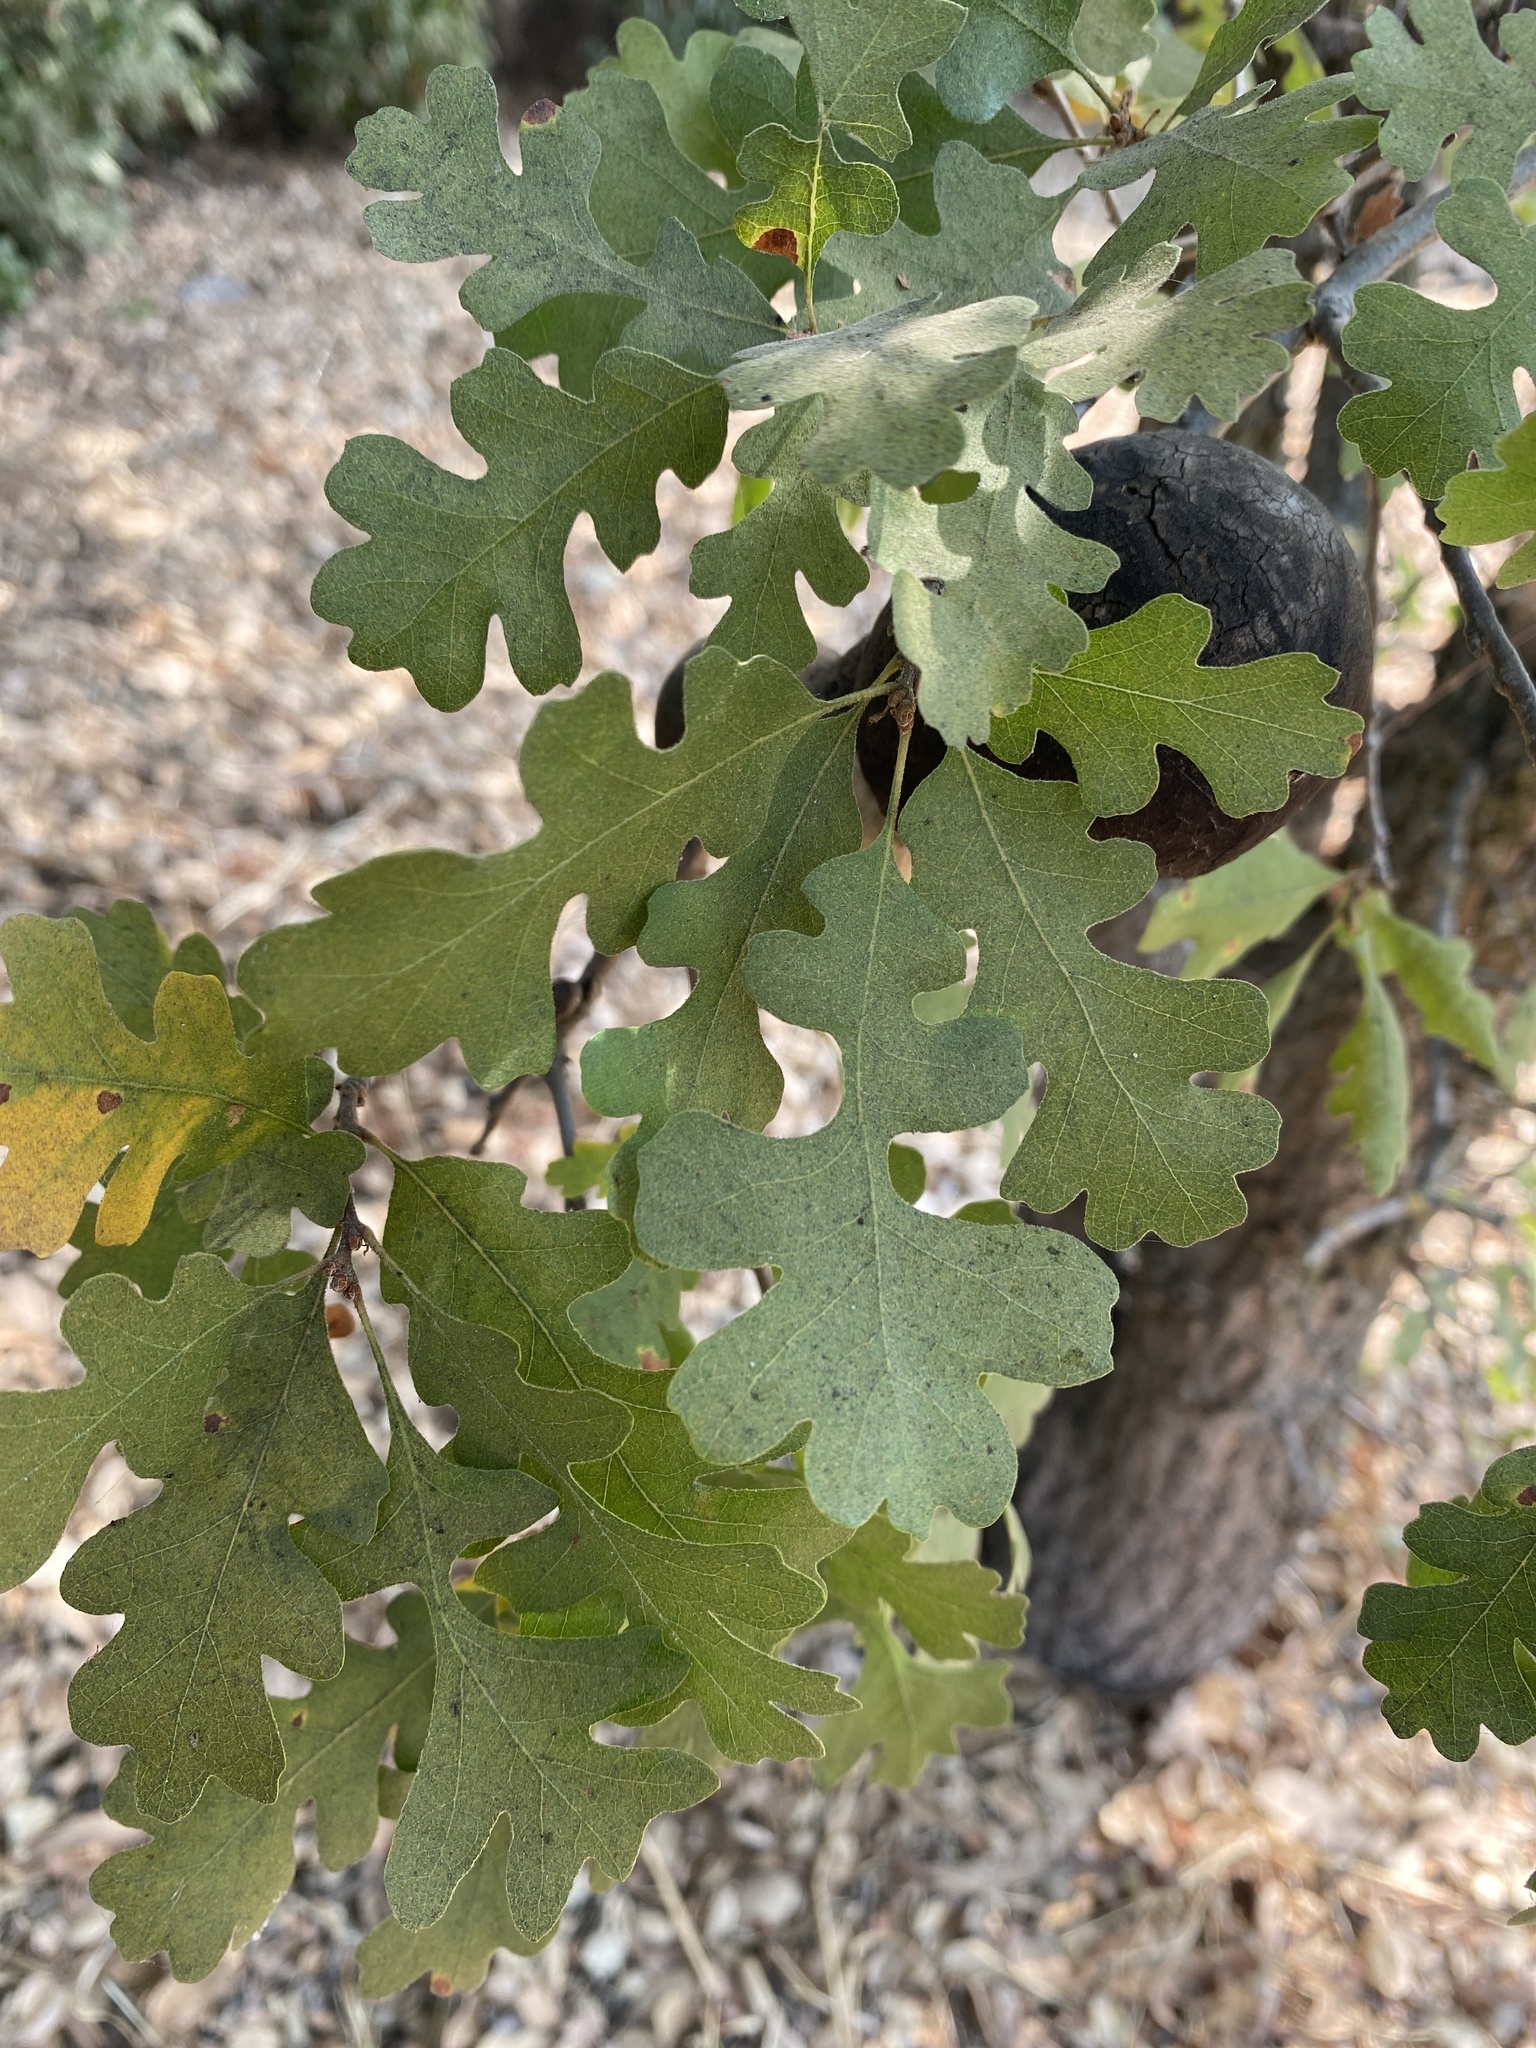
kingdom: Plantae
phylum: Tracheophyta
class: Magnoliopsida
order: Fagales
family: Fagaceae
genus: Quercus
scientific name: Quercus lobata
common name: Valley oak
